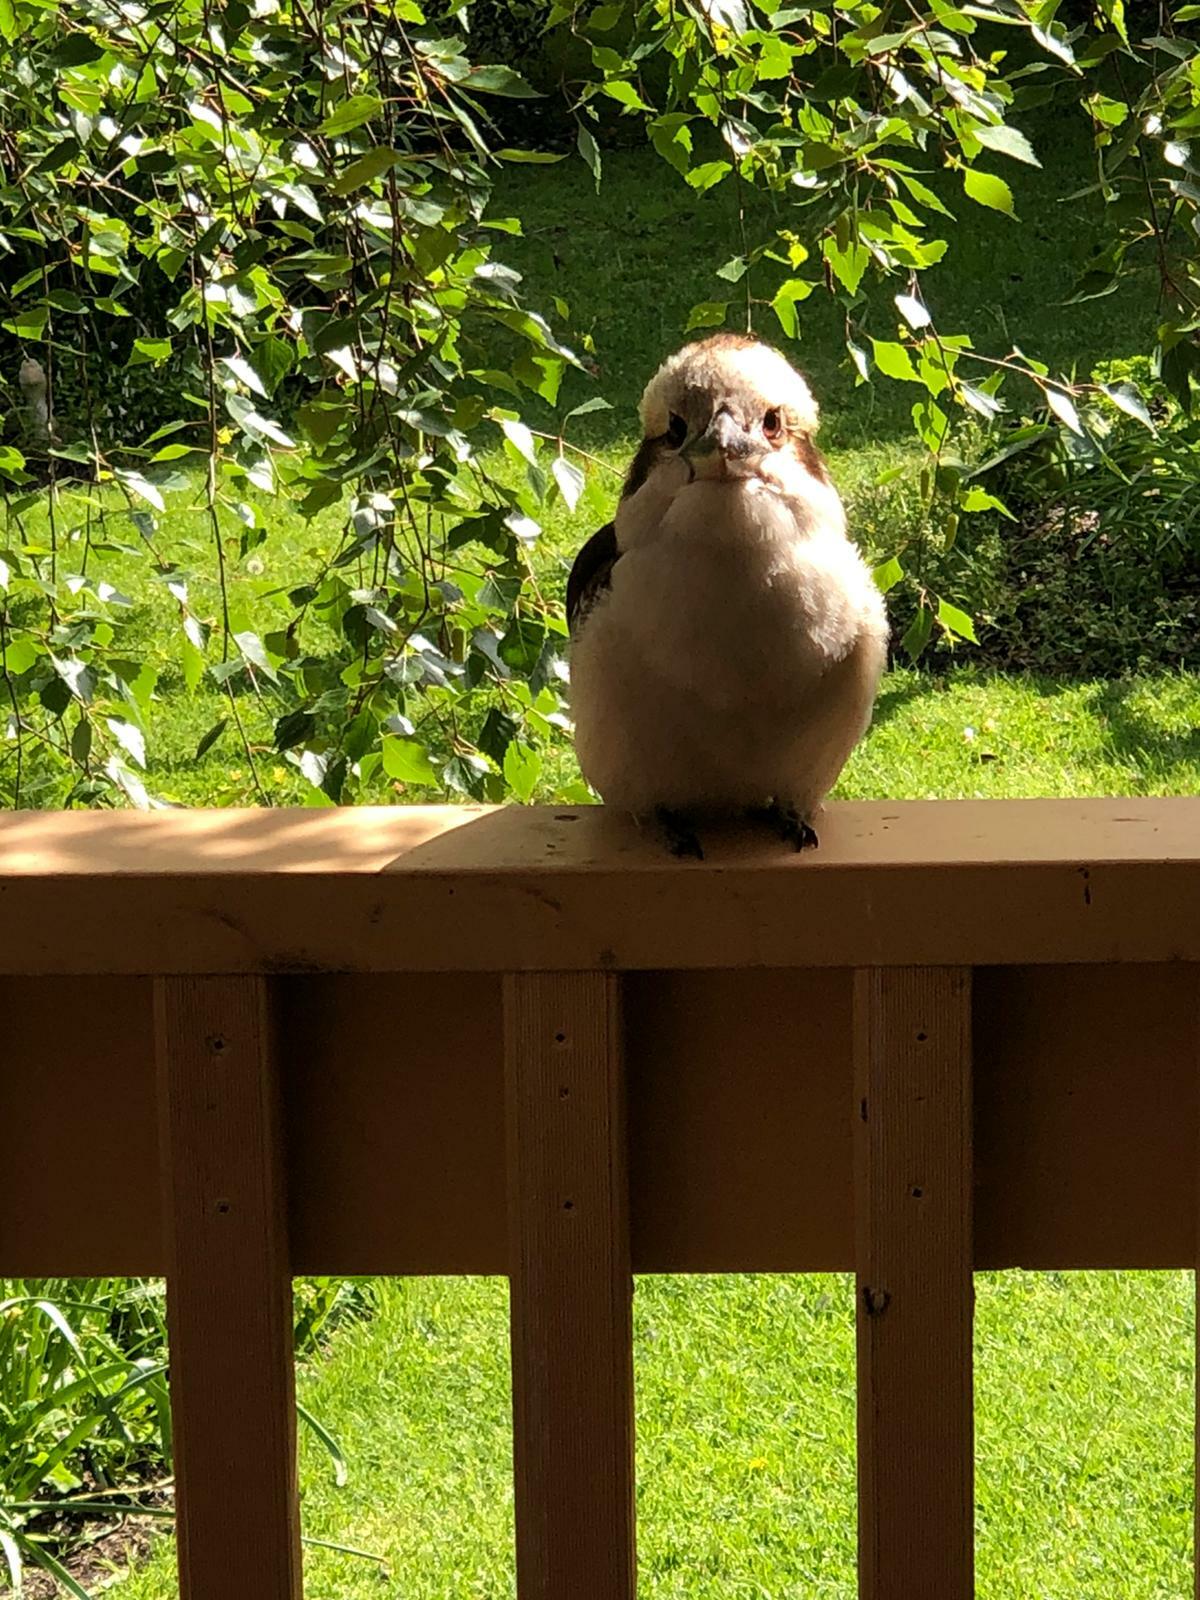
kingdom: Animalia
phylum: Chordata
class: Aves
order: Coraciiformes
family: Alcedinidae
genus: Dacelo
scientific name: Dacelo novaeguineae
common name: Laughing kookaburra
